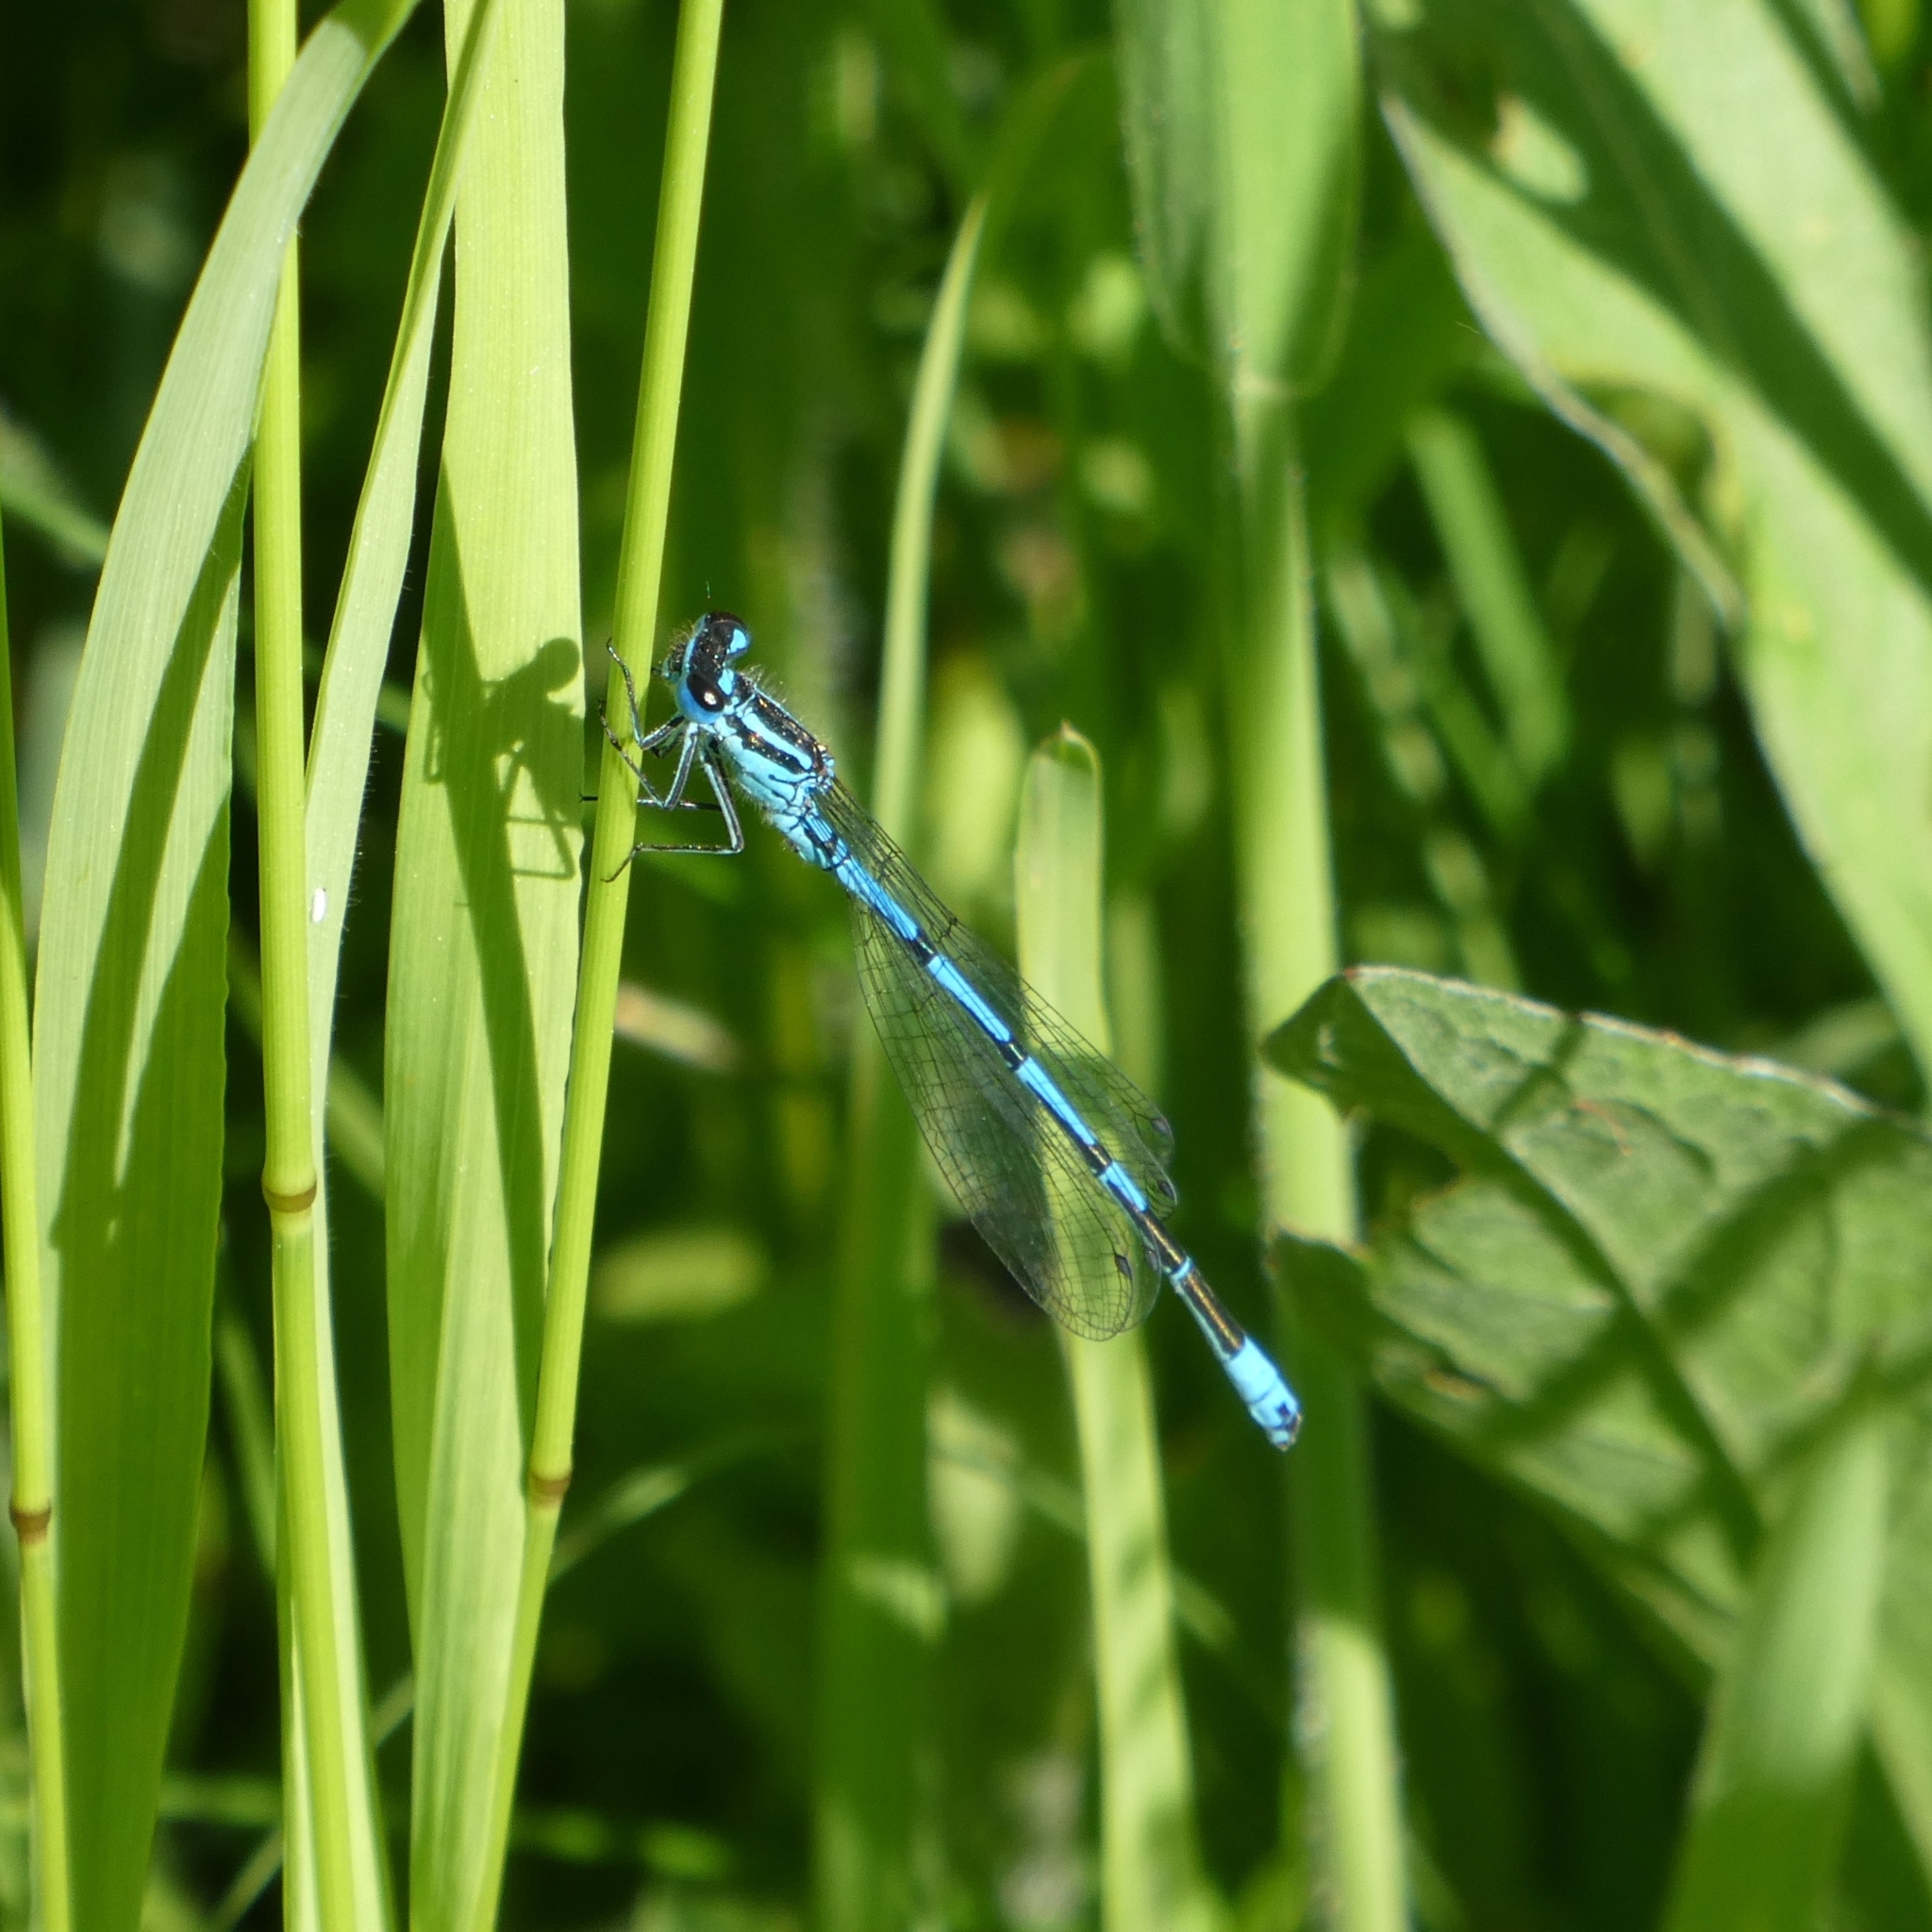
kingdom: Animalia
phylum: Arthropoda
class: Insecta
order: Odonata
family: Coenagrionidae
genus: Coenagrion
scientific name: Coenagrion puella
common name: Azure damselfly
